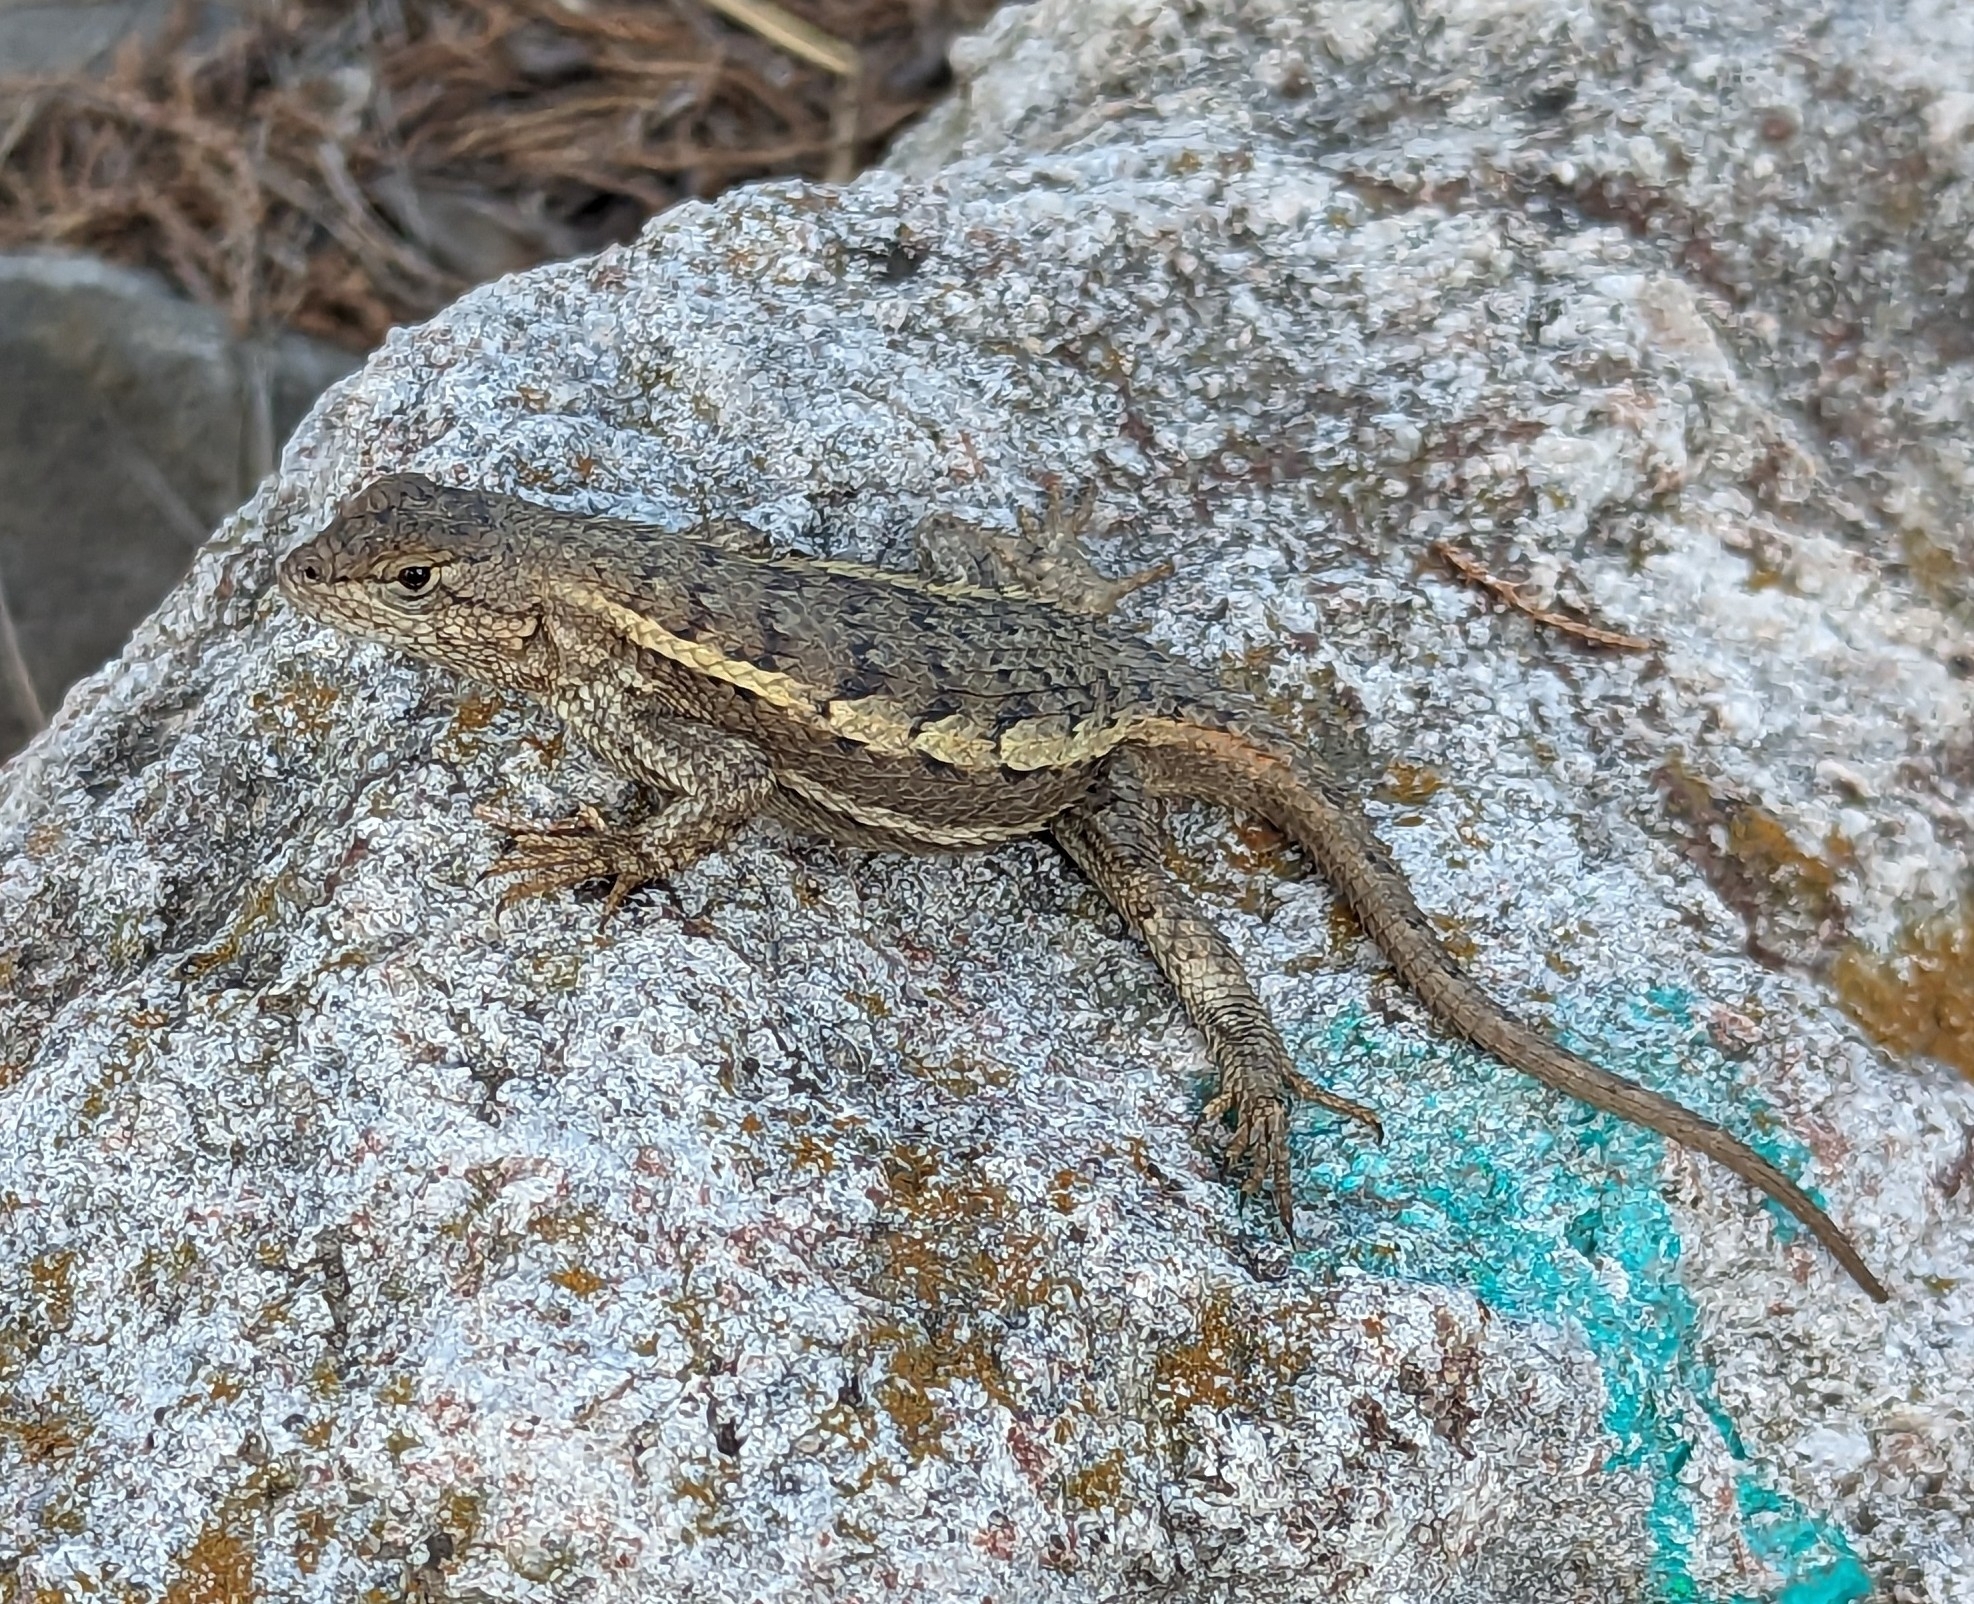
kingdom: Animalia
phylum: Chordata
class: Squamata
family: Phrynosomatidae
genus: Sceloporus
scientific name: Sceloporus virgatus
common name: Striped plateau lizard
